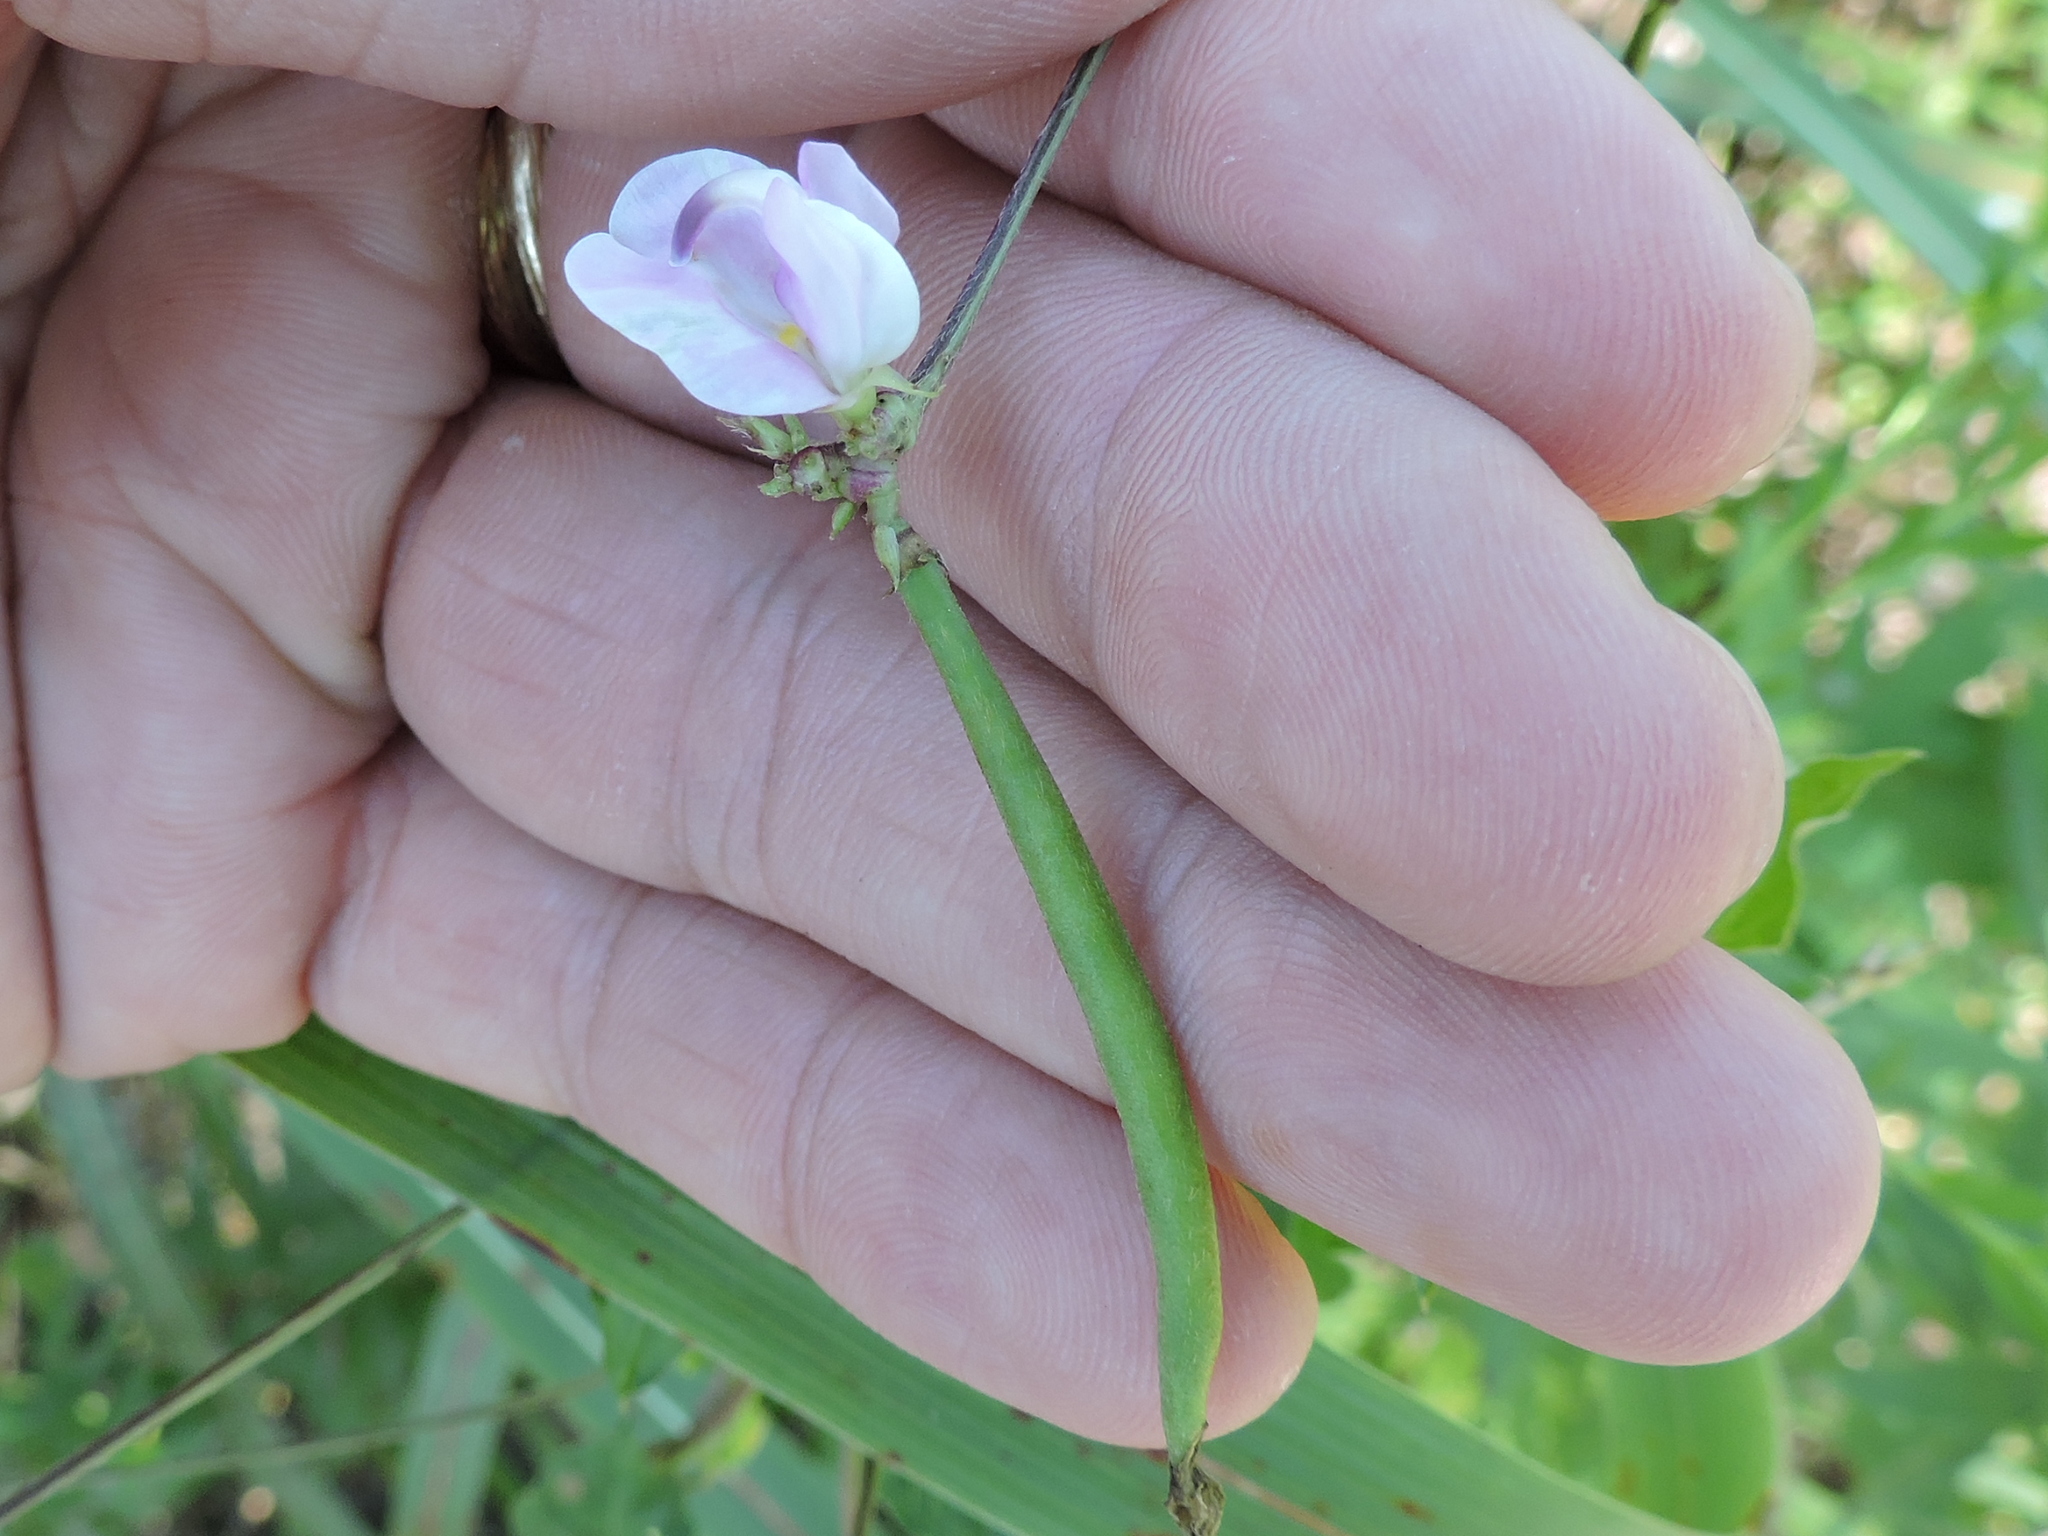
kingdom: Plantae
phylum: Tracheophyta
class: Magnoliopsida
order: Fabales
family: Fabaceae
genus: Strophostyles
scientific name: Strophostyles helvola
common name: Trailing wild bean
